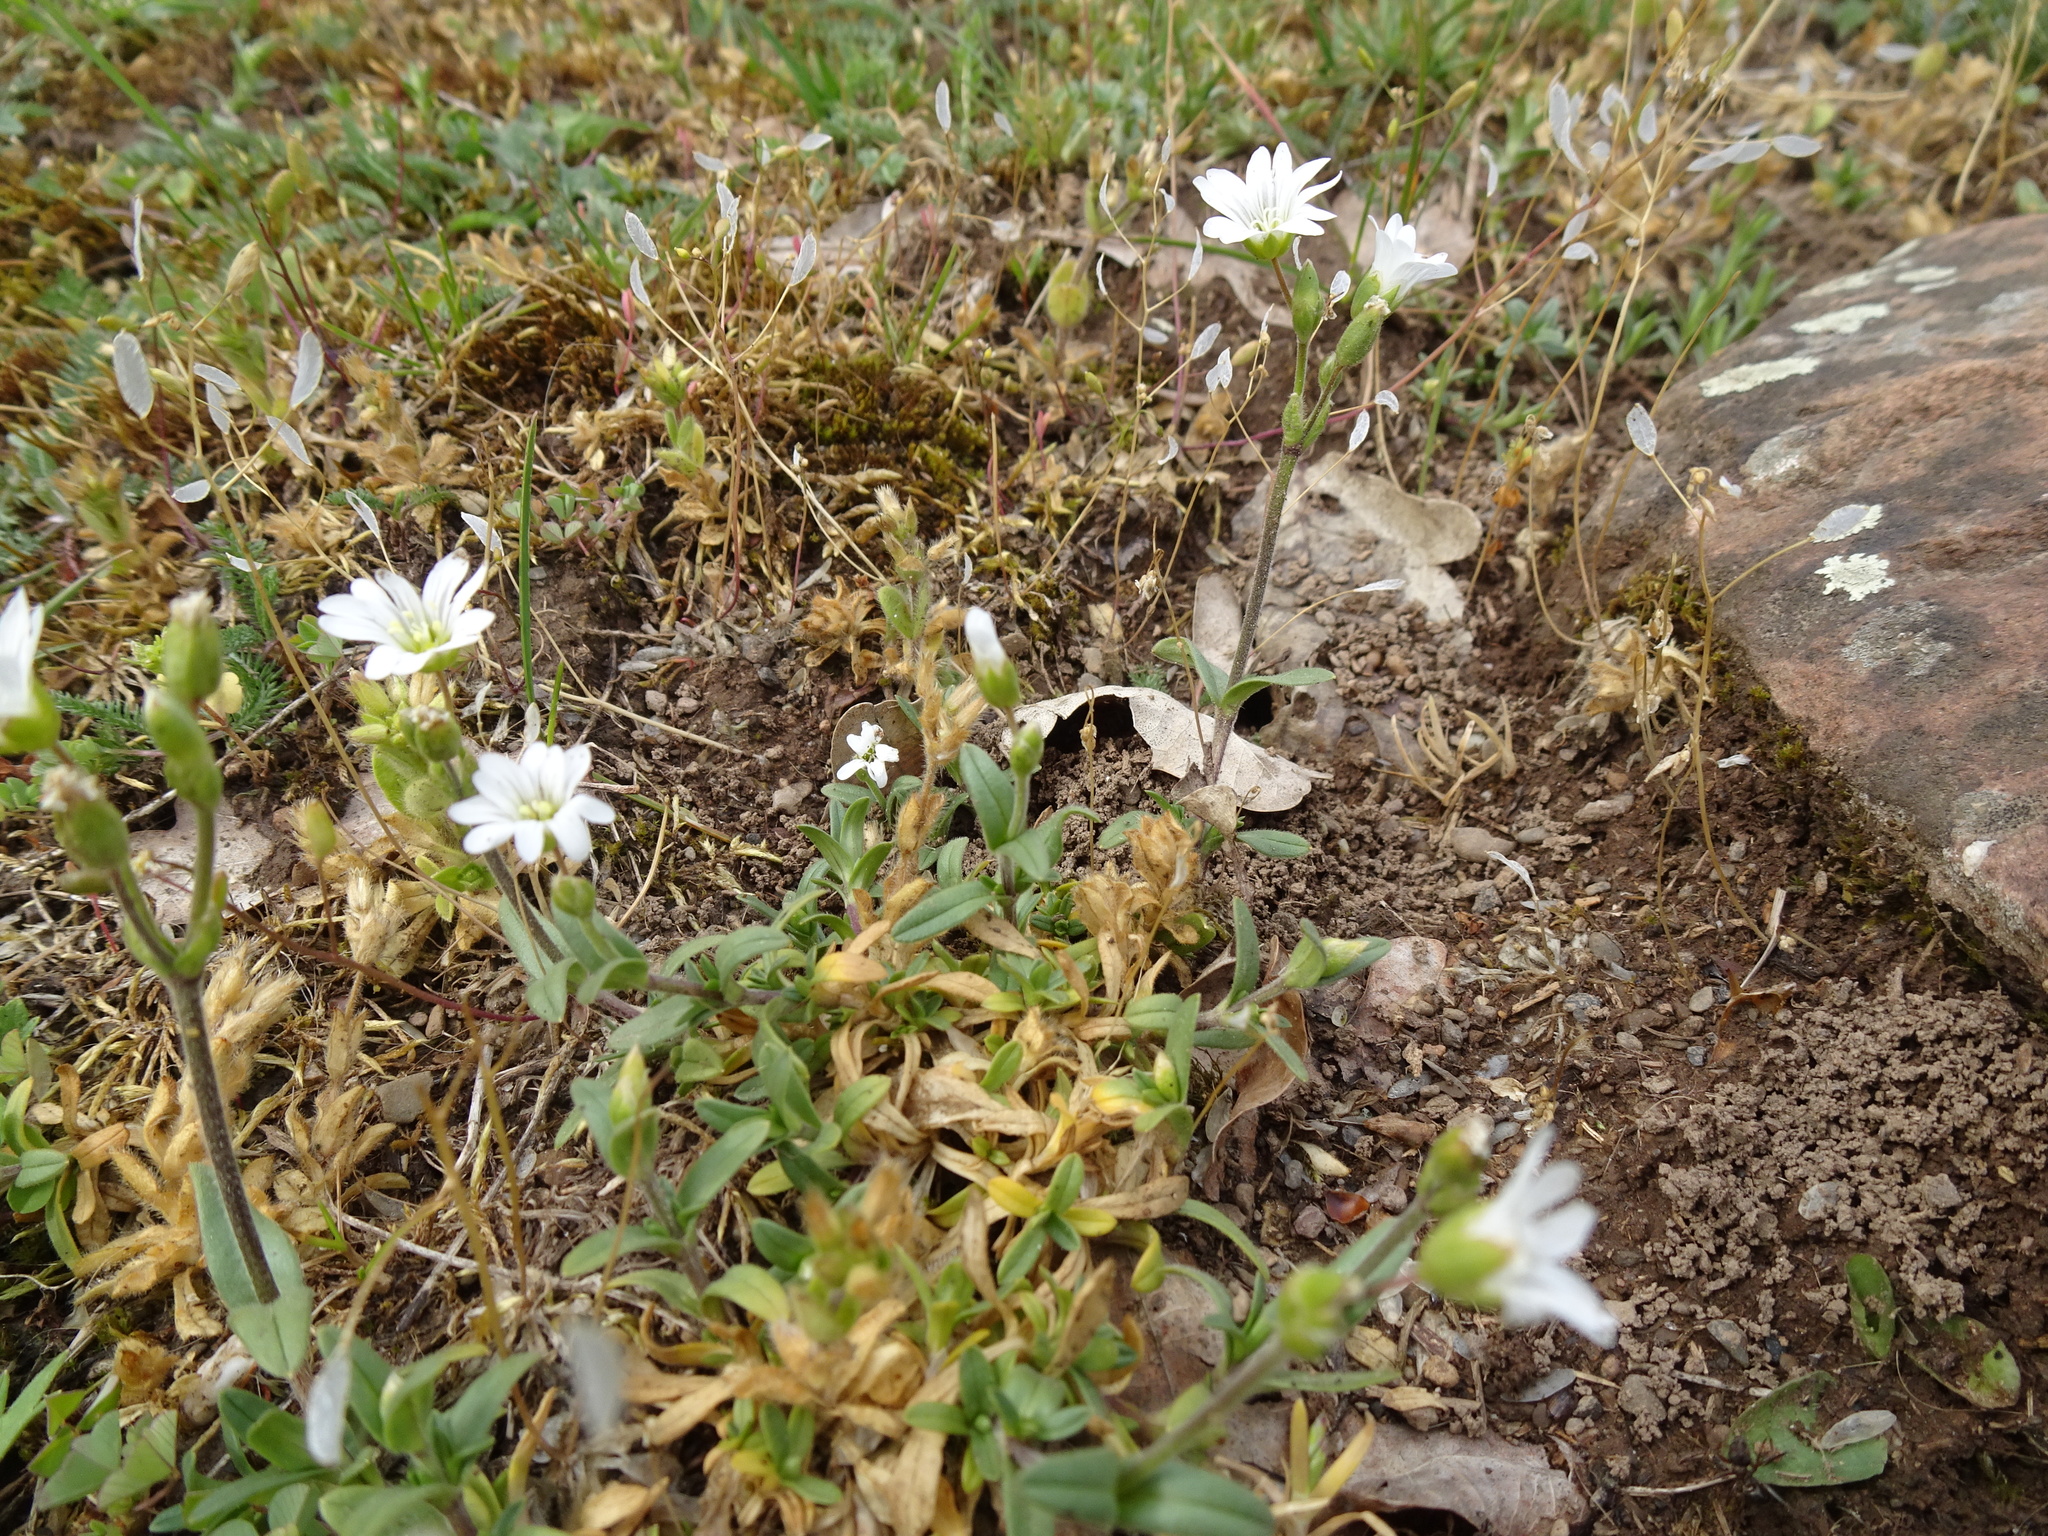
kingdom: Plantae
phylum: Tracheophyta
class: Magnoliopsida
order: Caryophyllales
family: Caryophyllaceae
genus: Cerastium
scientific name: Cerastium arvense
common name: Field mouse-ear
